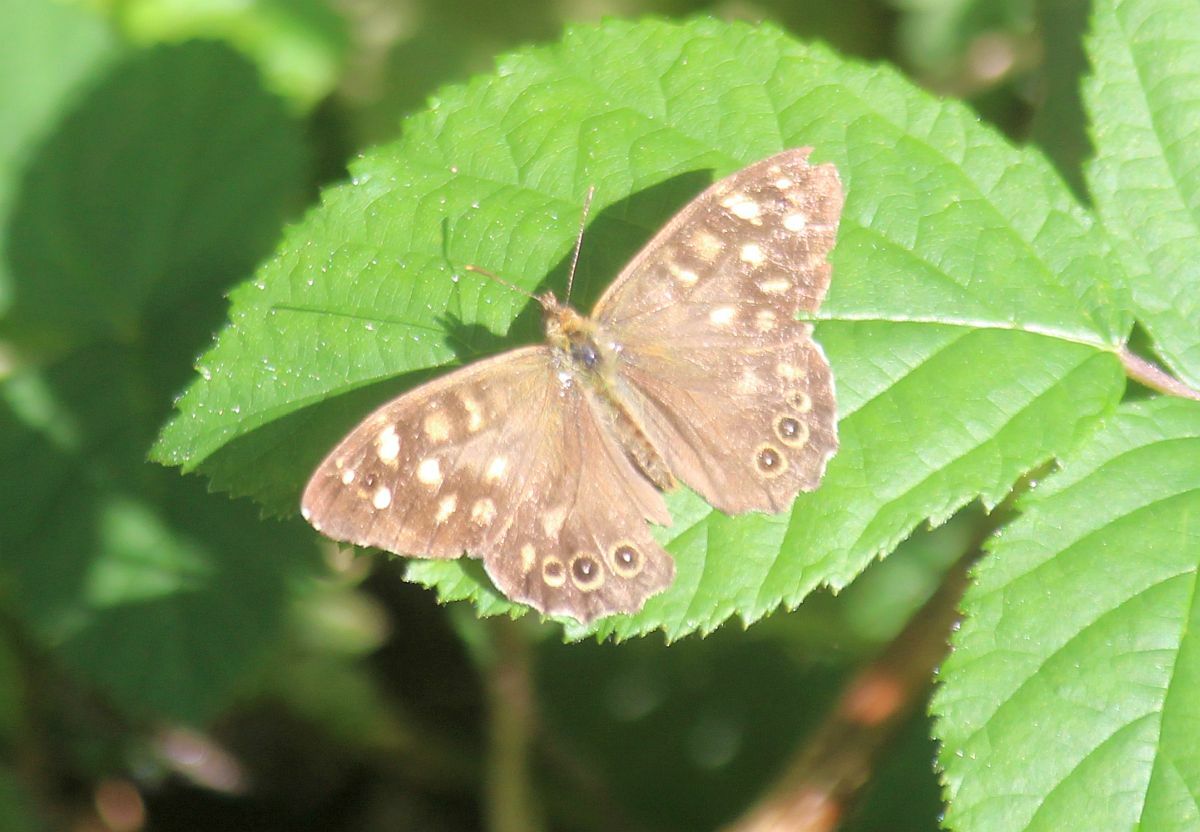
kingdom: Animalia
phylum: Arthropoda
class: Insecta
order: Lepidoptera
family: Nymphalidae
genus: Pararge
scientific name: Pararge aegeria
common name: Speckled wood
